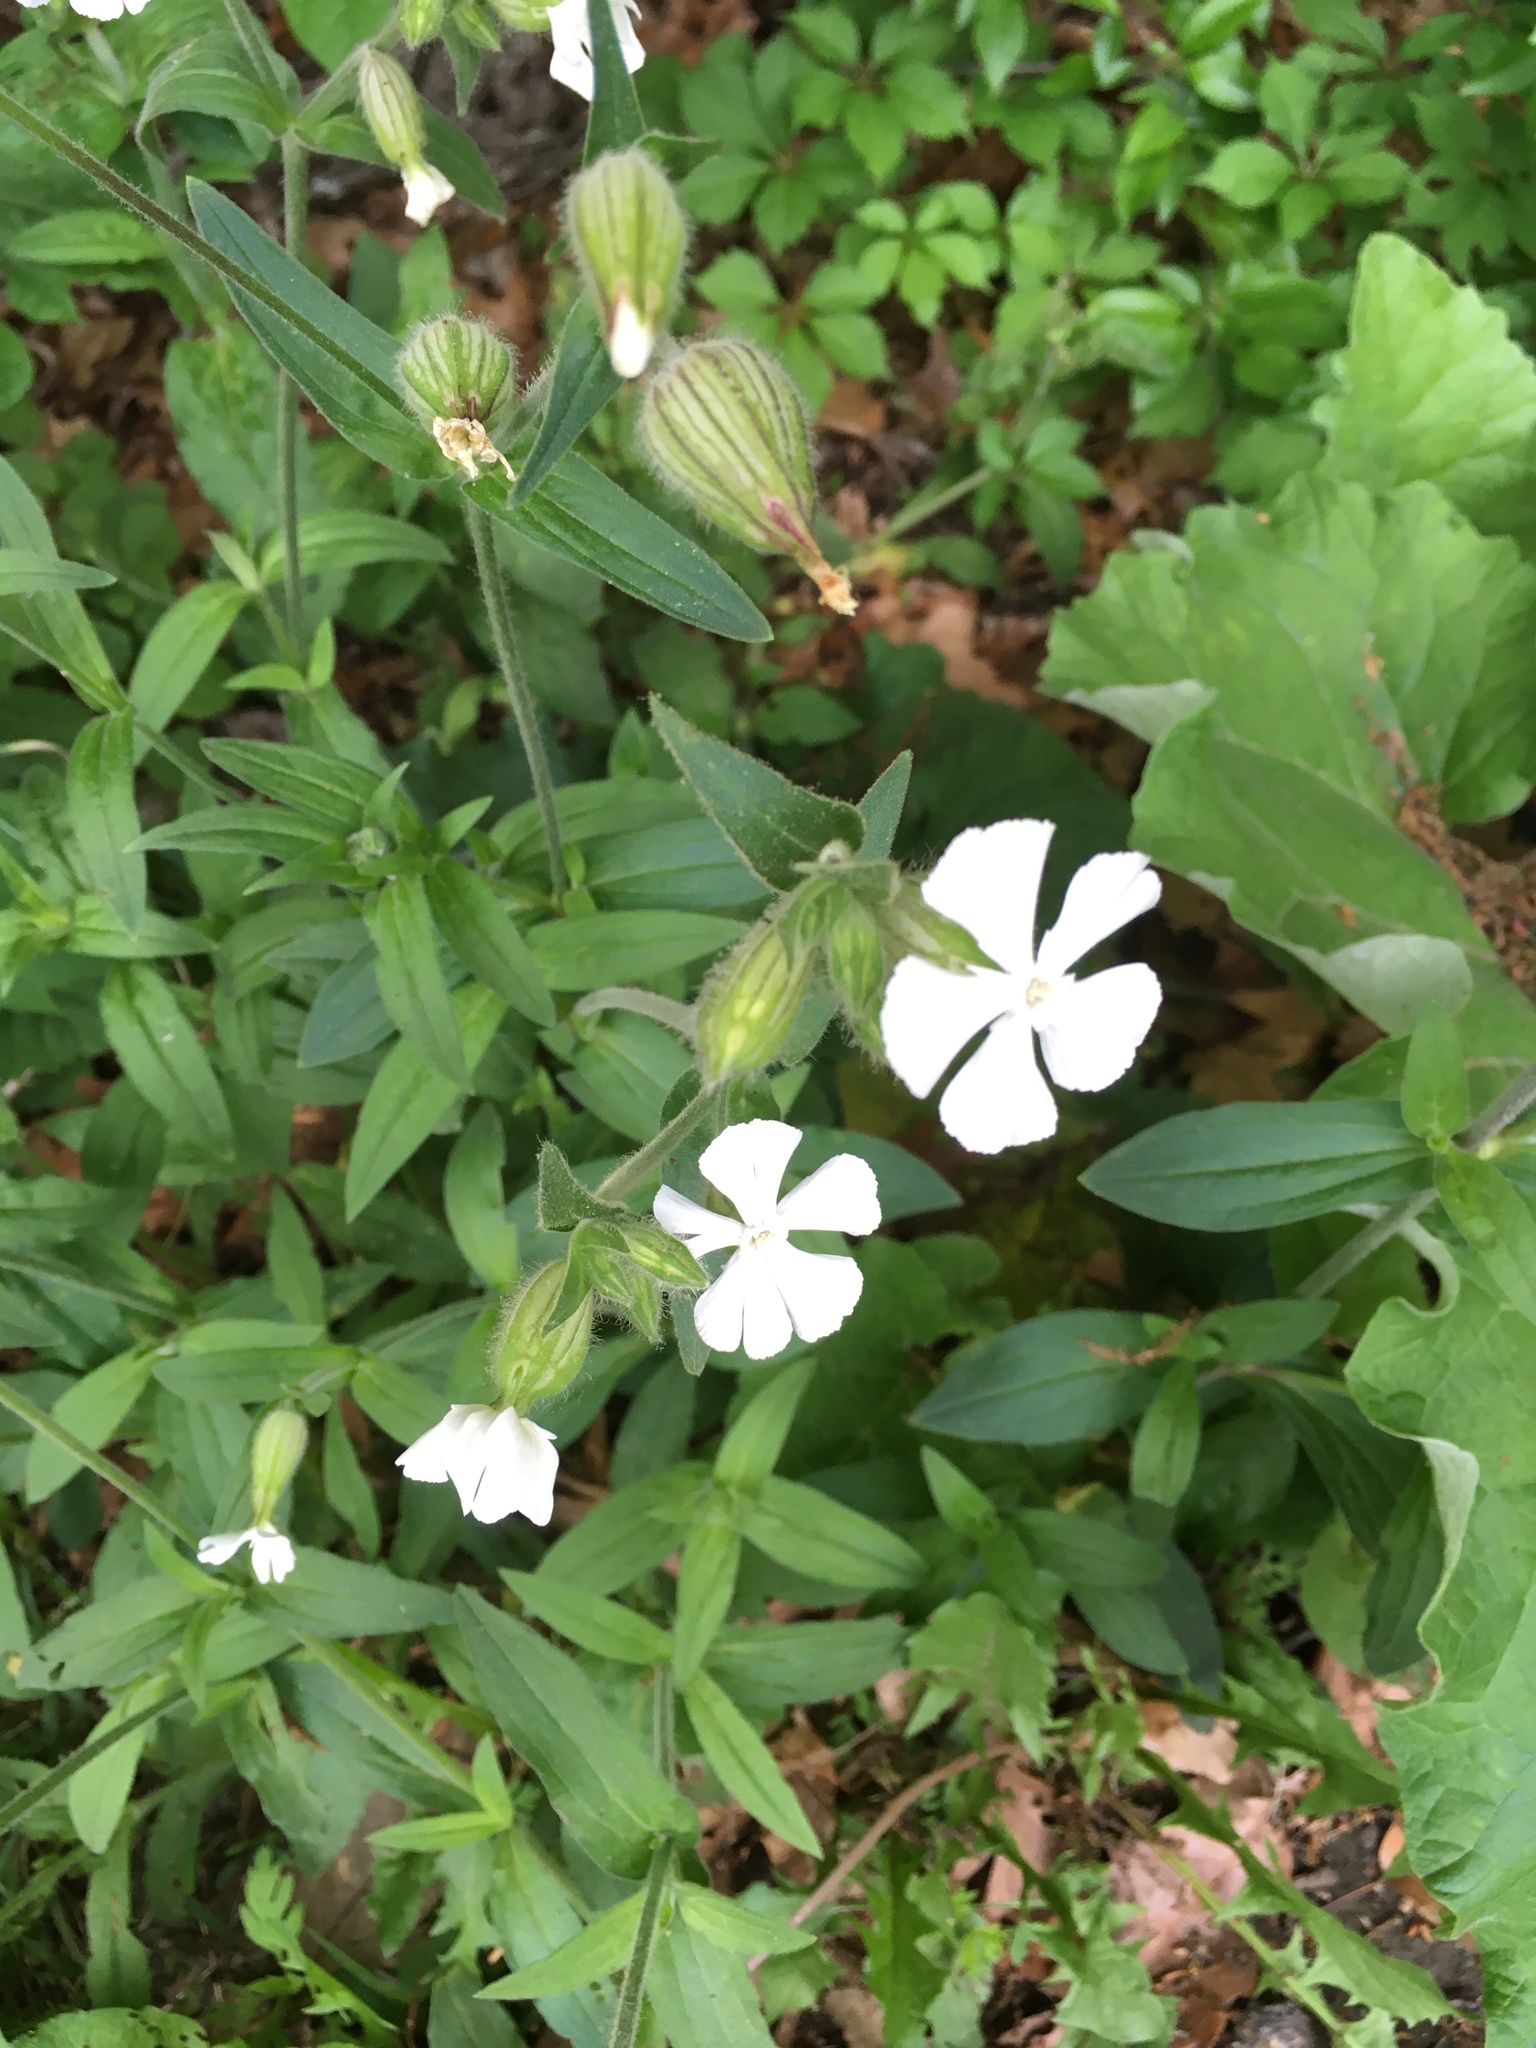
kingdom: Plantae
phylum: Tracheophyta
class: Magnoliopsida
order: Caryophyllales
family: Caryophyllaceae
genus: Silene
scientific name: Silene latifolia
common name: White campion
